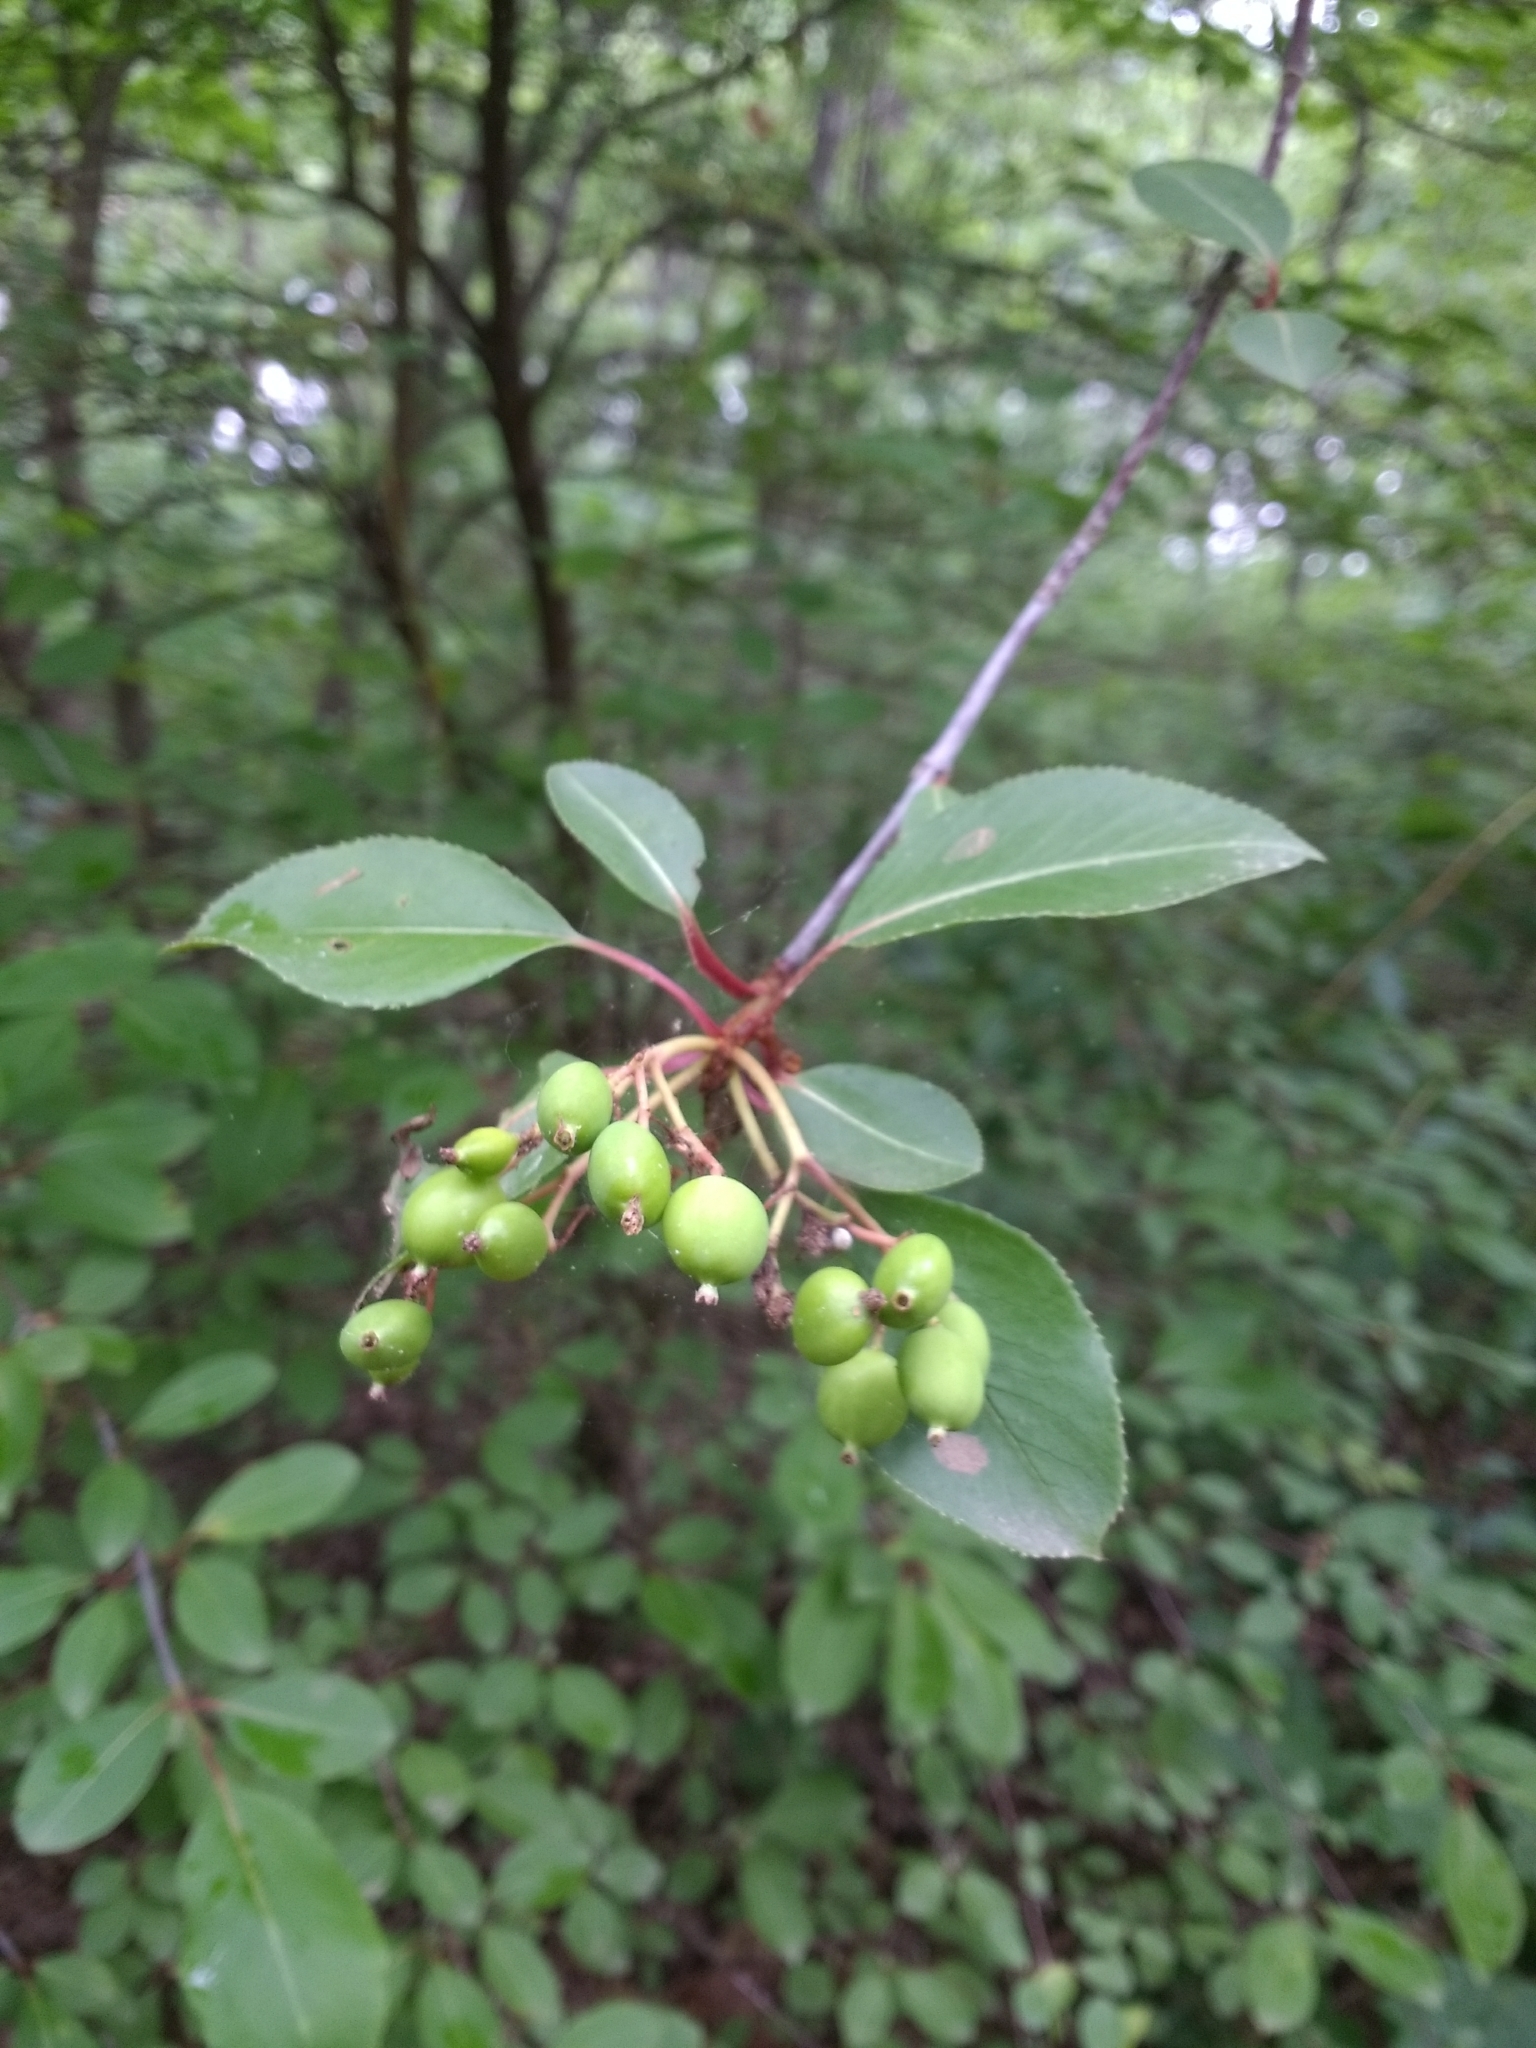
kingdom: Plantae
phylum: Tracheophyta
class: Magnoliopsida
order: Dipsacales
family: Viburnaceae
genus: Viburnum
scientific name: Viburnum prunifolium
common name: Black haw
